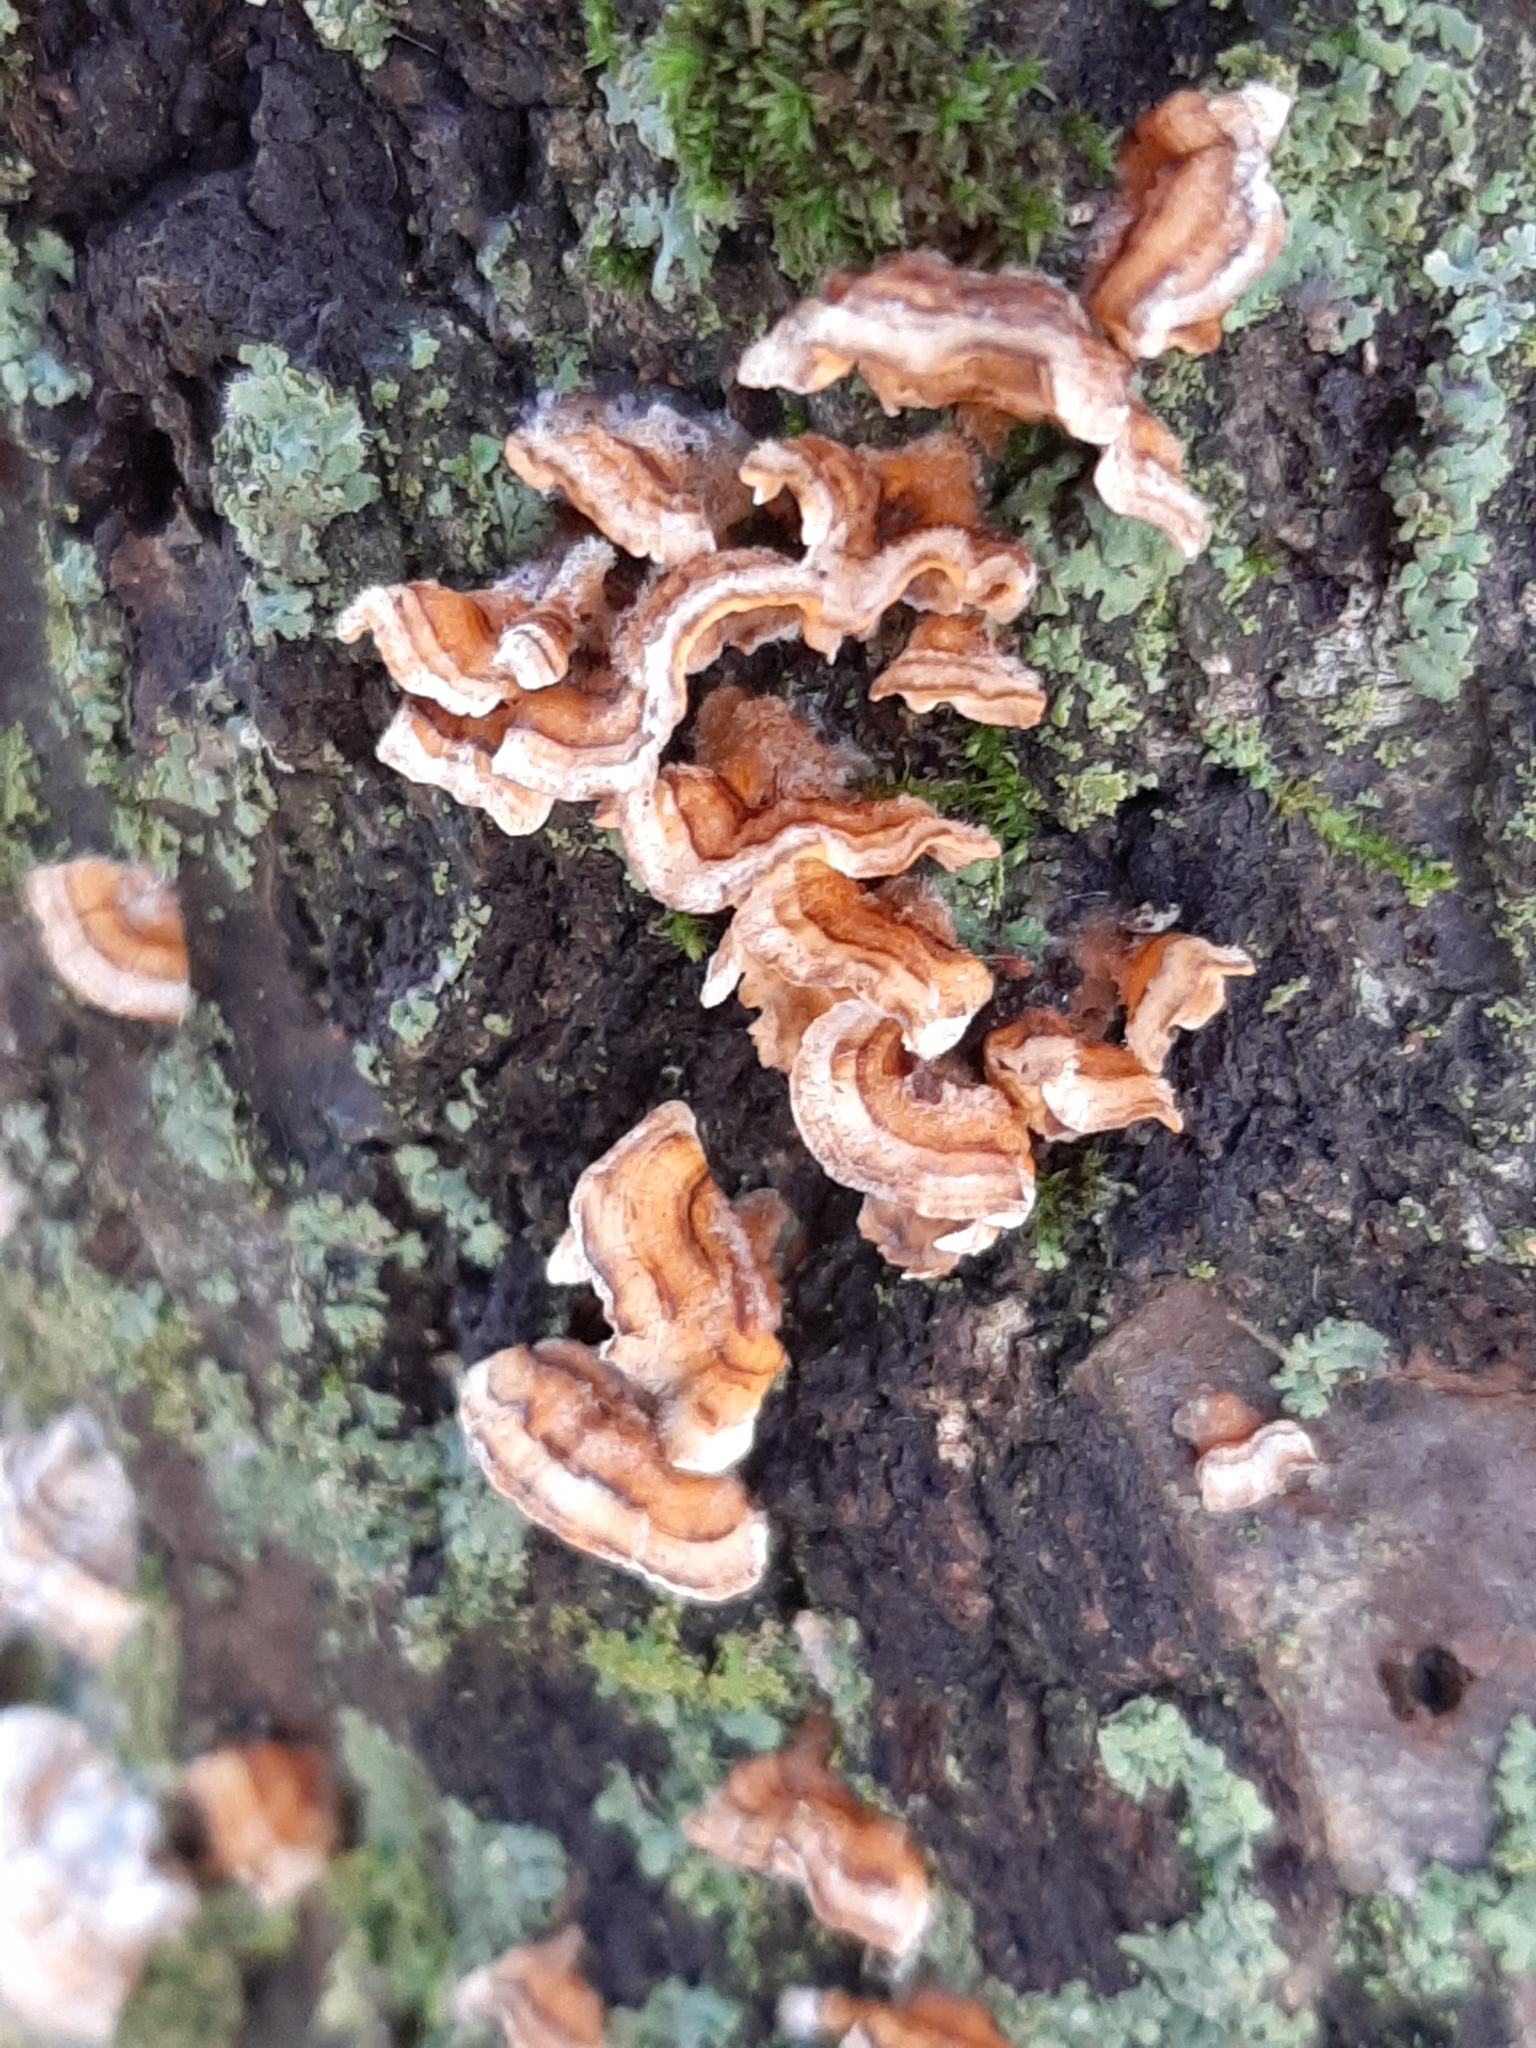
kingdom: Fungi
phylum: Basidiomycota
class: Agaricomycetes
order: Russulales
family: Stereaceae
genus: Stereum
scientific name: Stereum complicatum
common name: Crowded parchment
